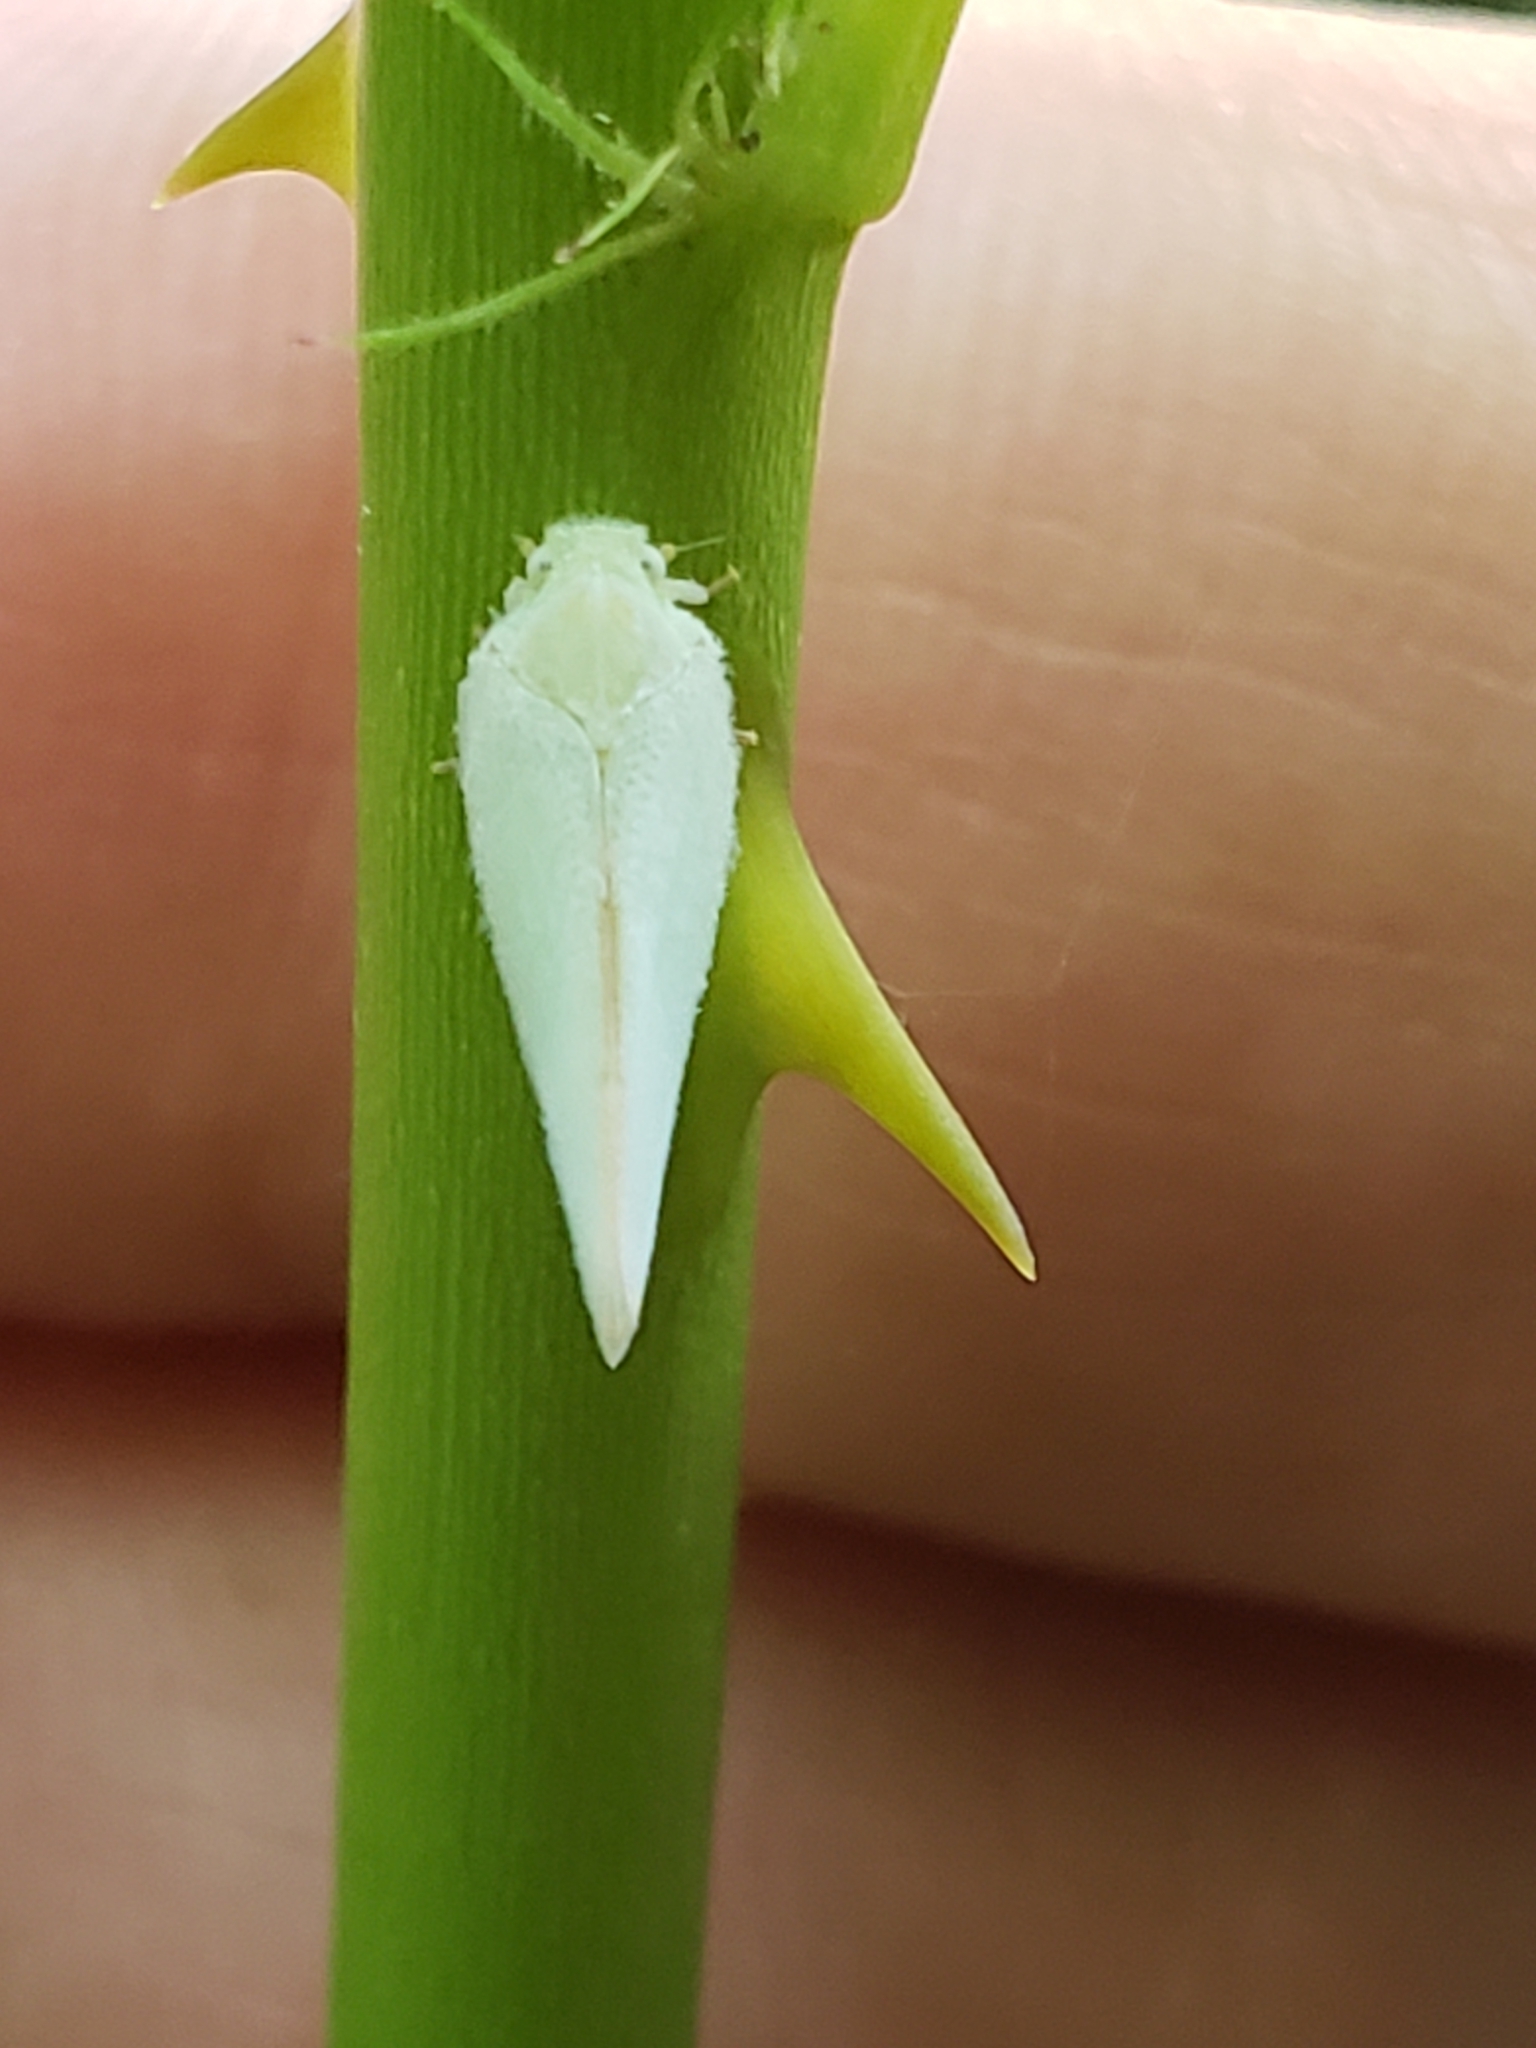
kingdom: Animalia
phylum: Arthropoda
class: Insecta
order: Hemiptera
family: Flatidae
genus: Ormenoides
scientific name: Ormenoides venusta
